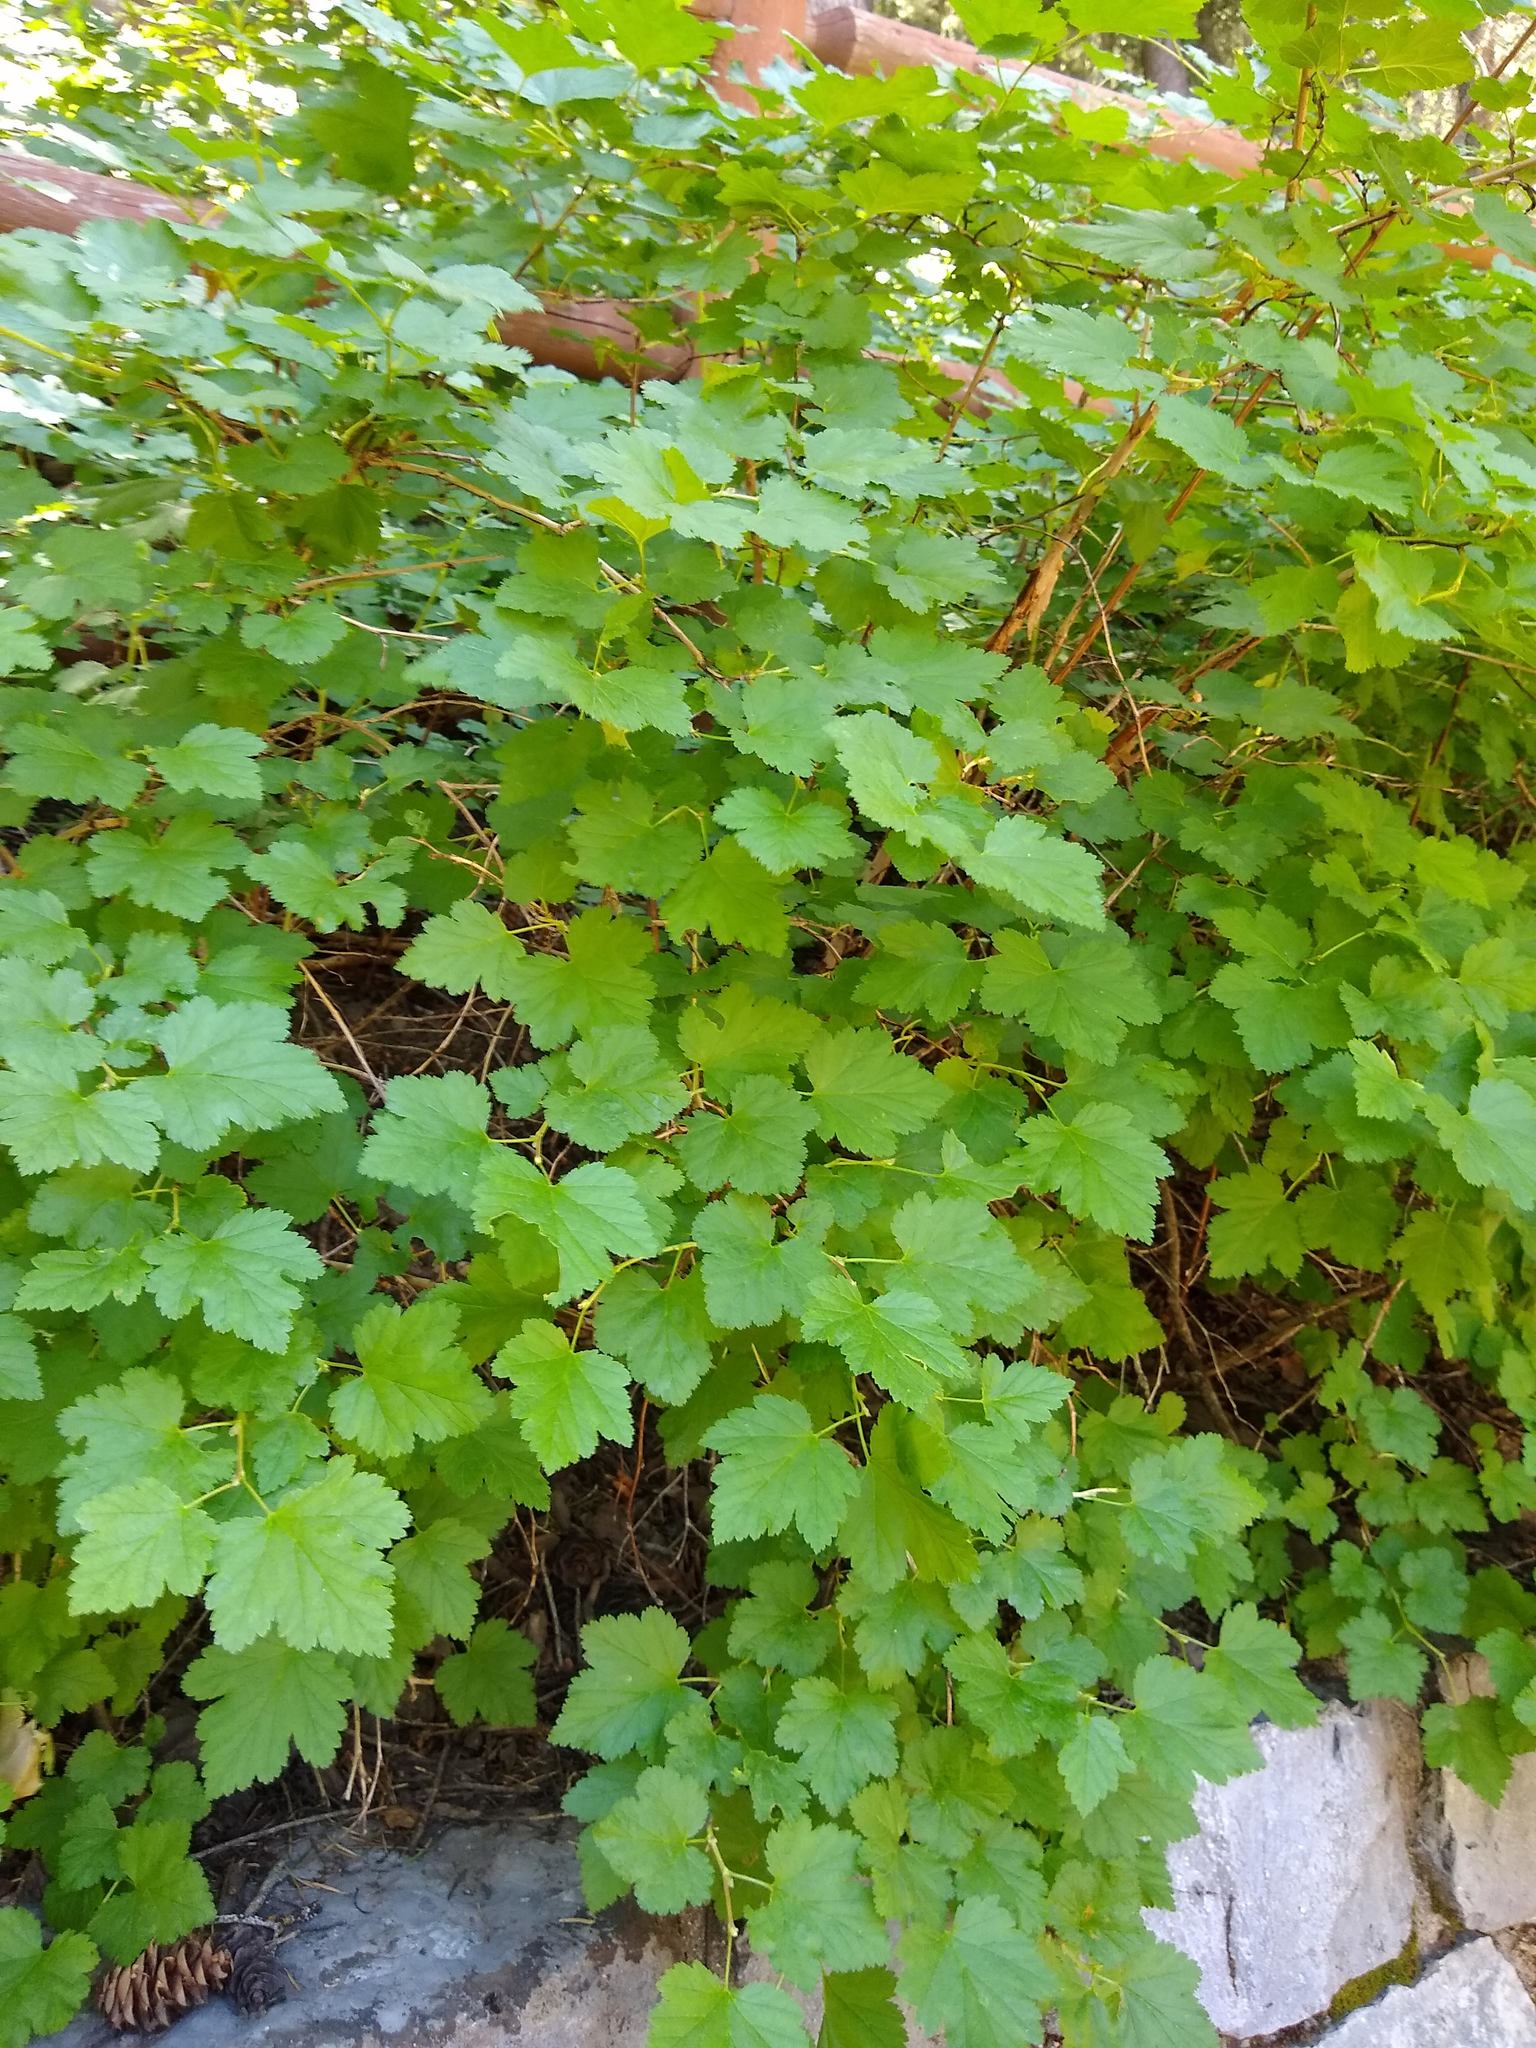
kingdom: Plantae
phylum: Tracheophyta
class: Magnoliopsida
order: Rosales
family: Rosaceae
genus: Physocarpus
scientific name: Physocarpus malvaceus
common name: Mallow ninebark
